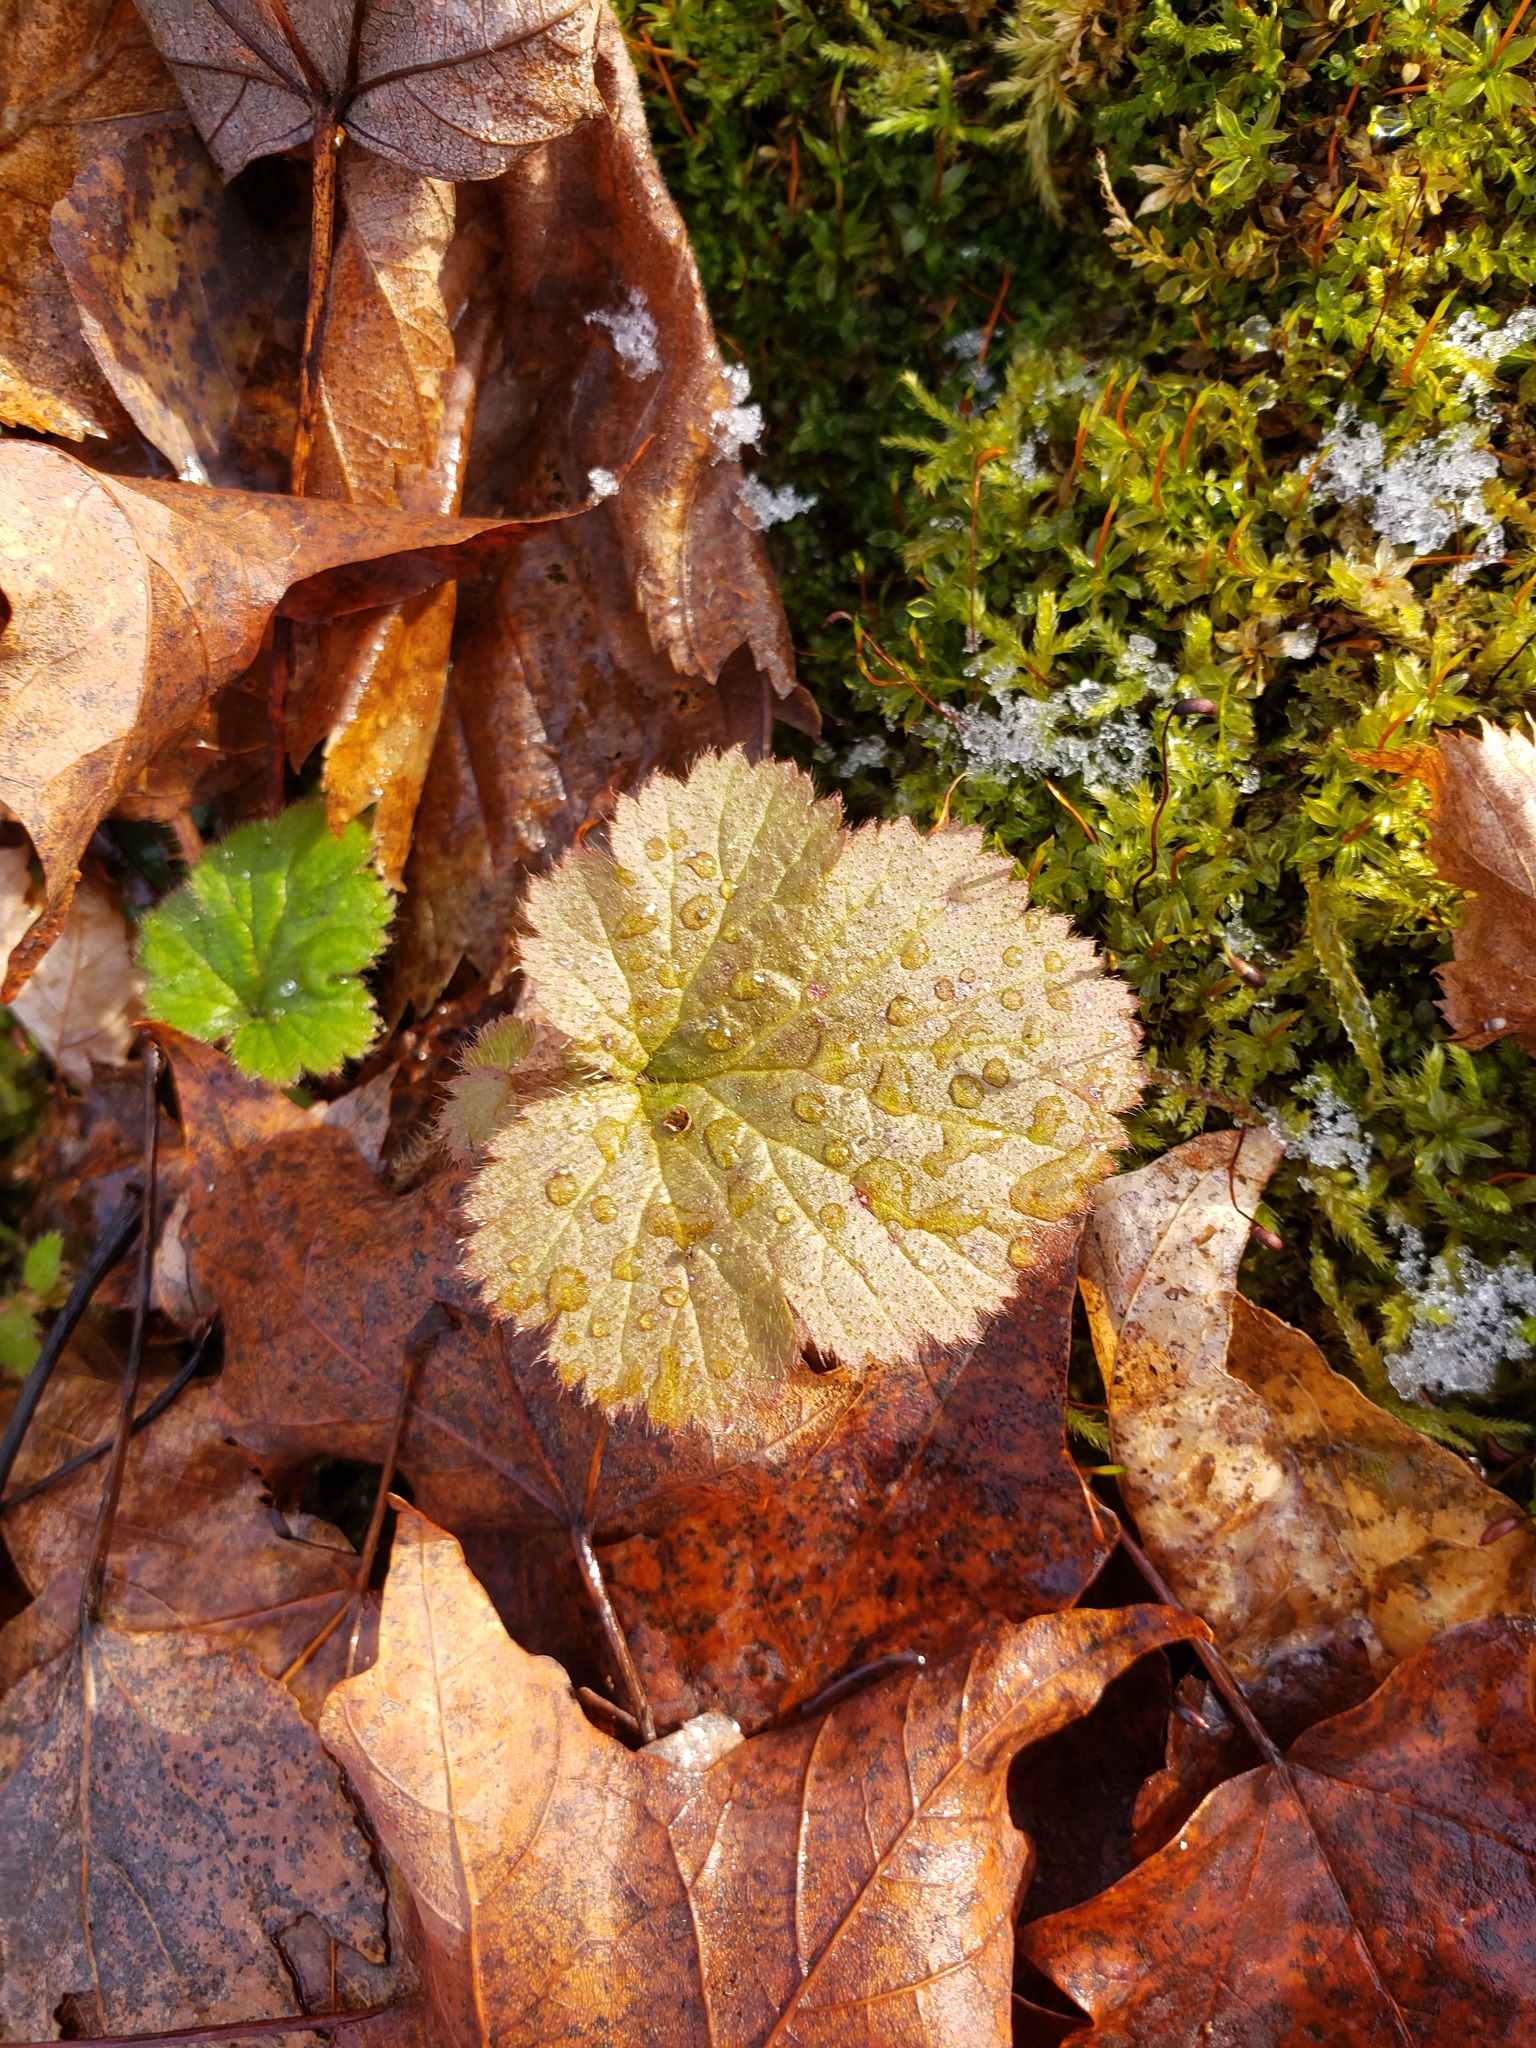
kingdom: Plantae
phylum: Tracheophyta
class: Magnoliopsida
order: Saxifragales
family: Saxifragaceae
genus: Tiarella
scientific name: Tiarella stolonifera
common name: Stoloniferous foamflower
